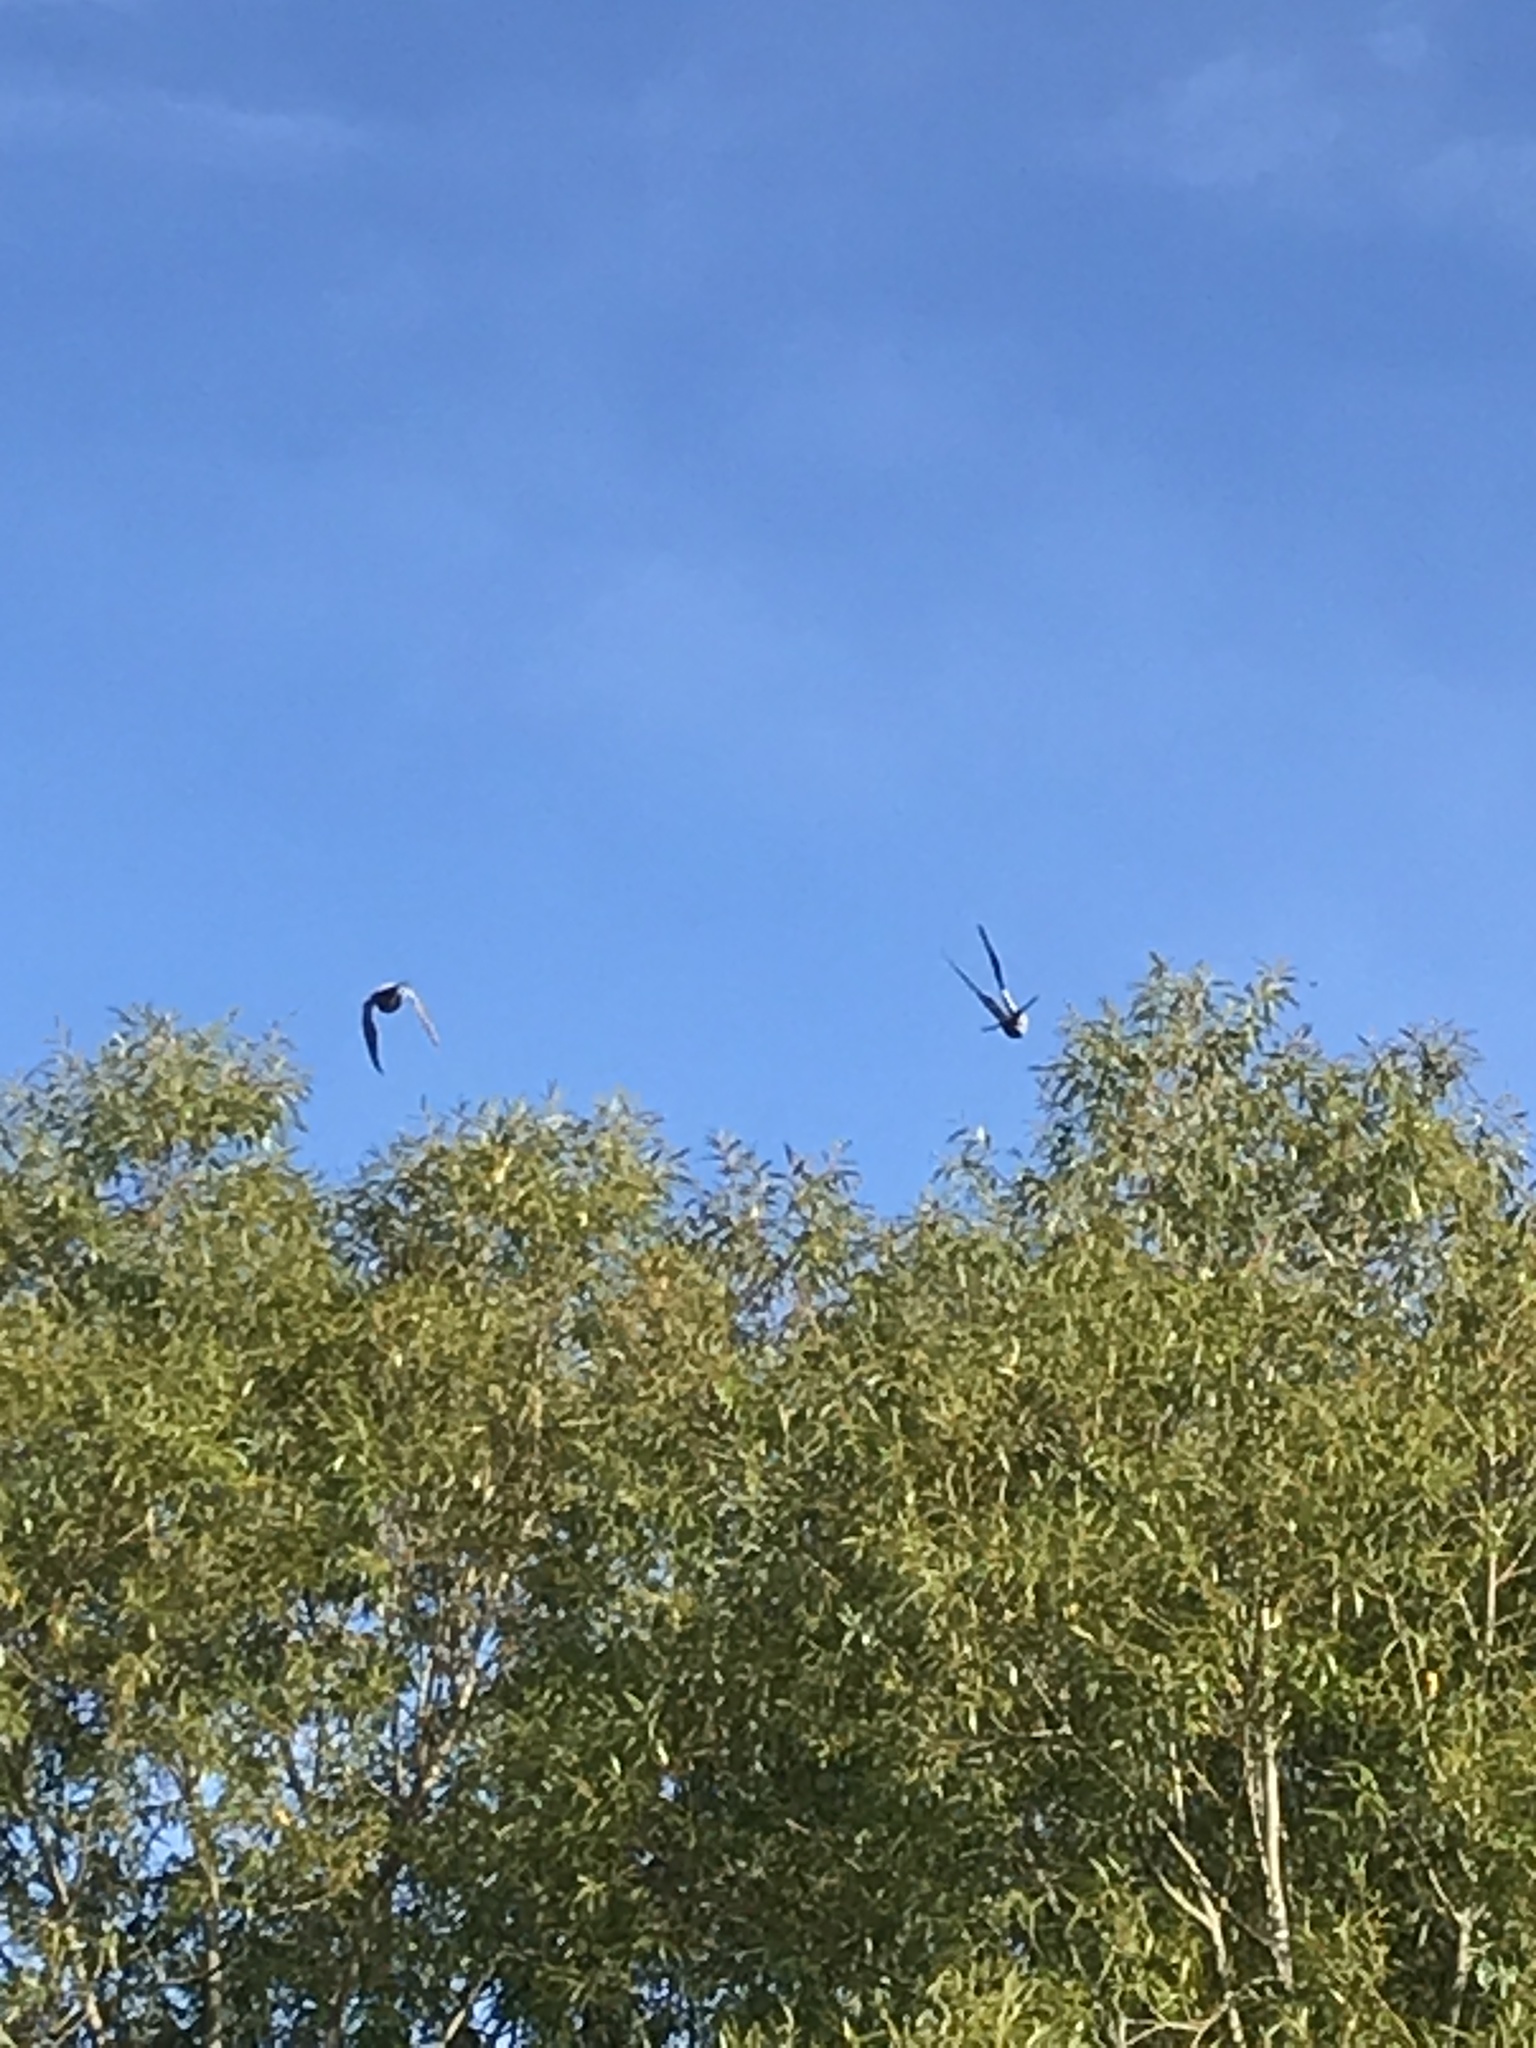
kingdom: Animalia
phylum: Chordata
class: Aves
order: Columbiformes
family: Columbidae
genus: Columba
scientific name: Columba livia
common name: Rock pigeon
